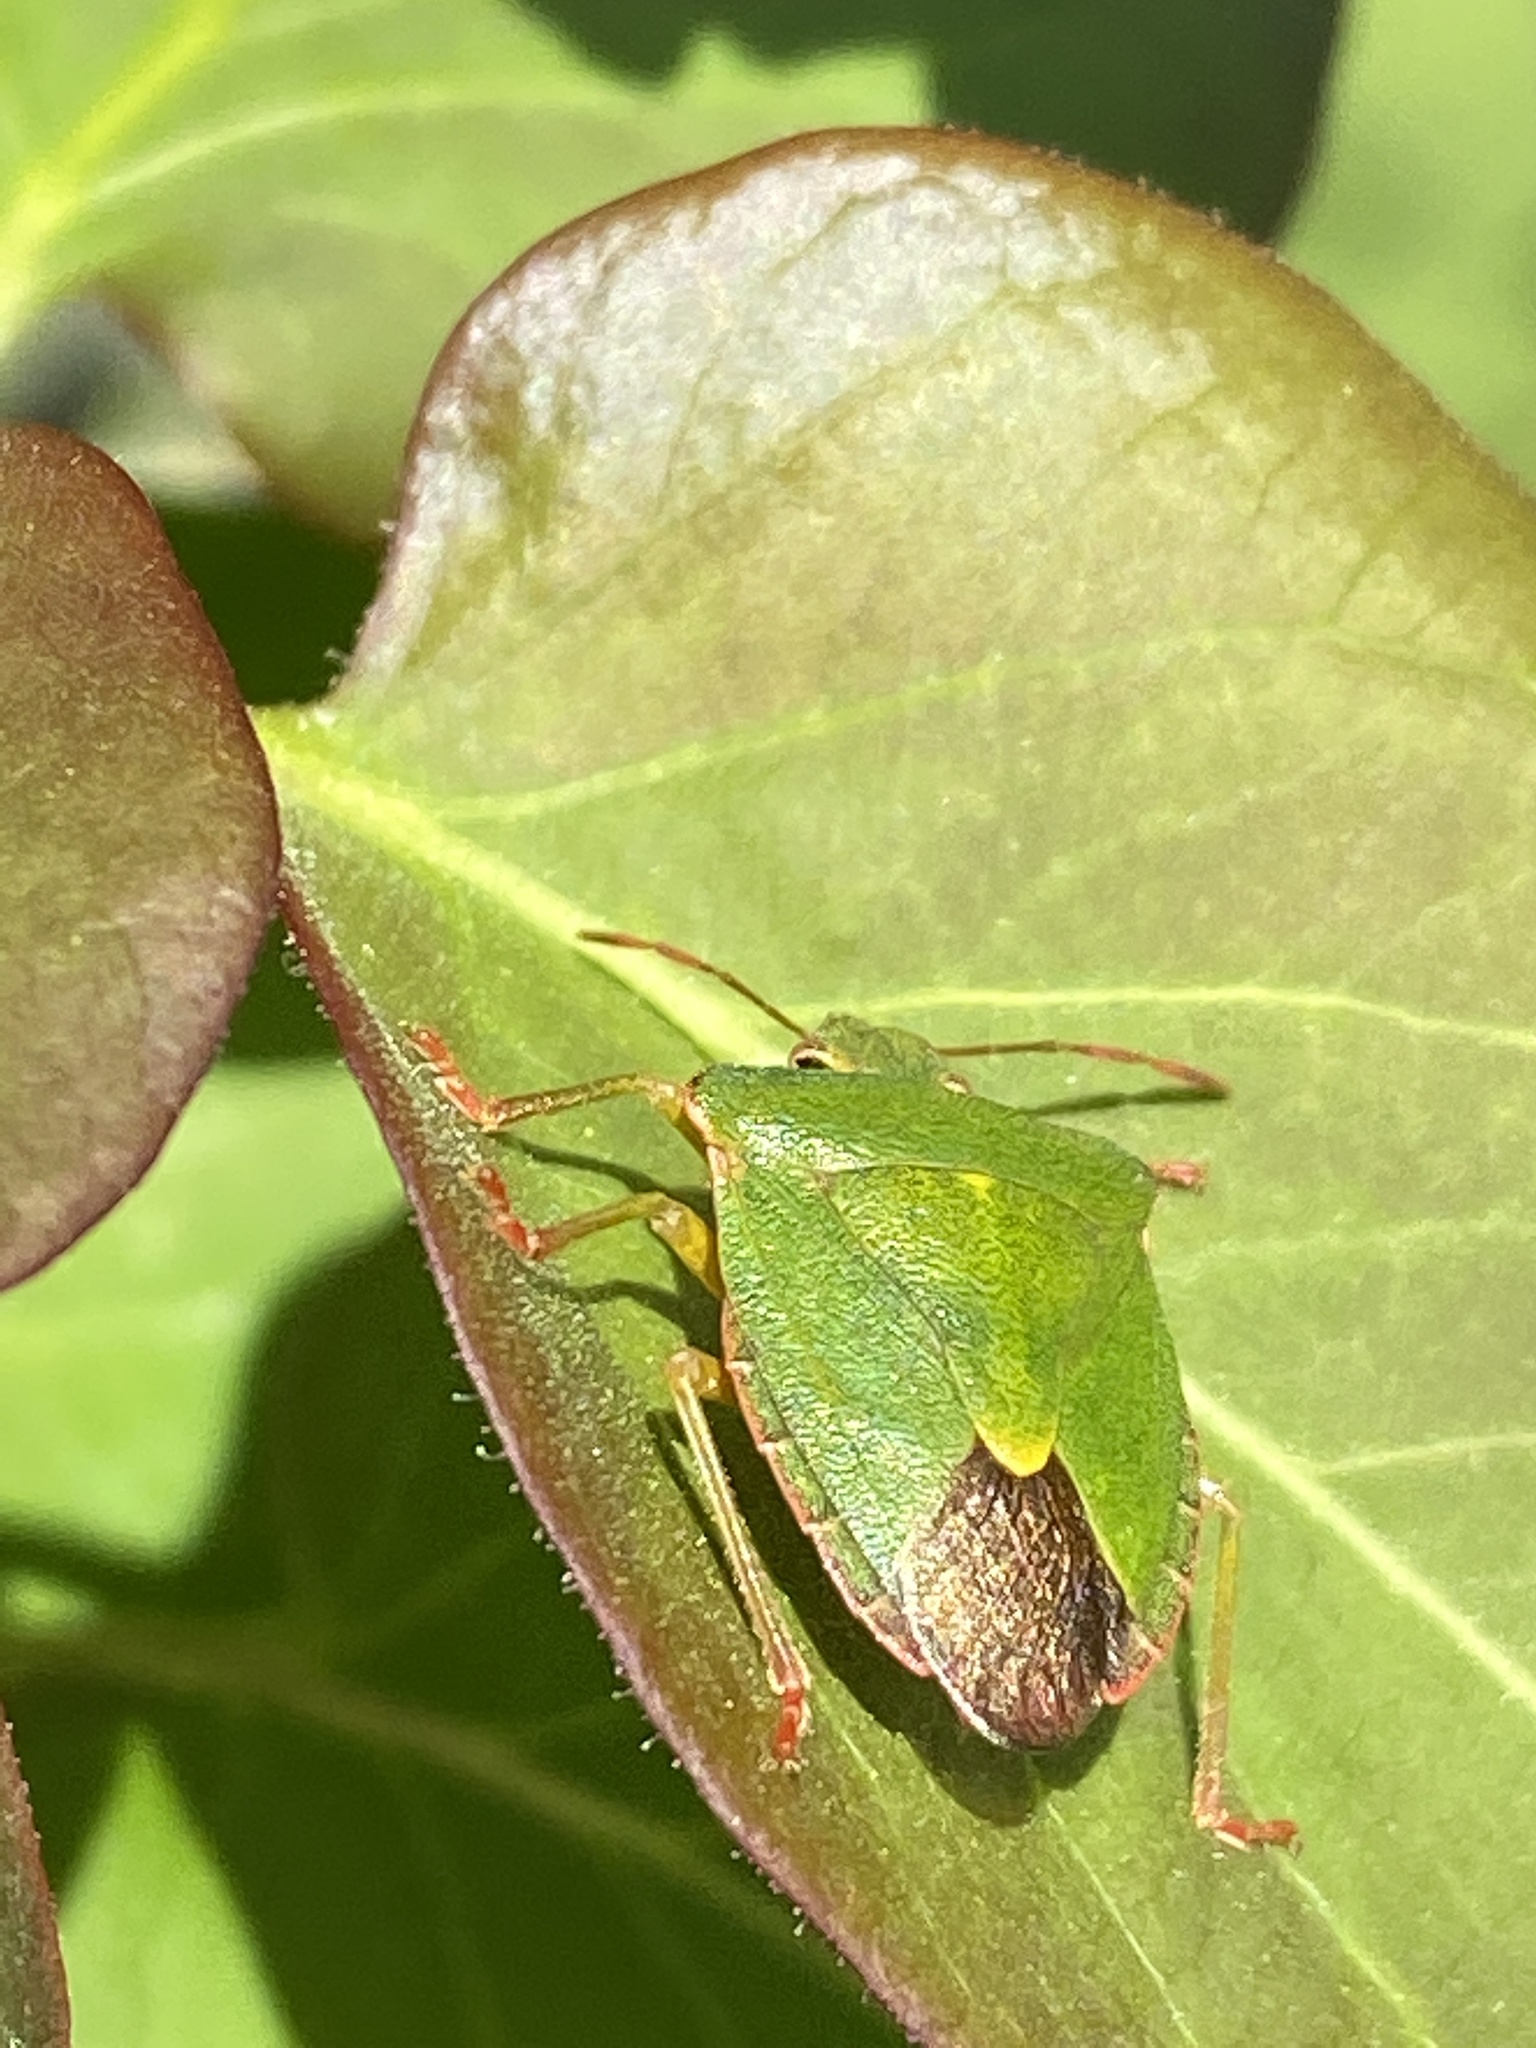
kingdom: Animalia
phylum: Arthropoda
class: Insecta
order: Hemiptera
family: Pentatomidae
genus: Palomena
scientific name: Palomena prasina
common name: Green shieldbug
